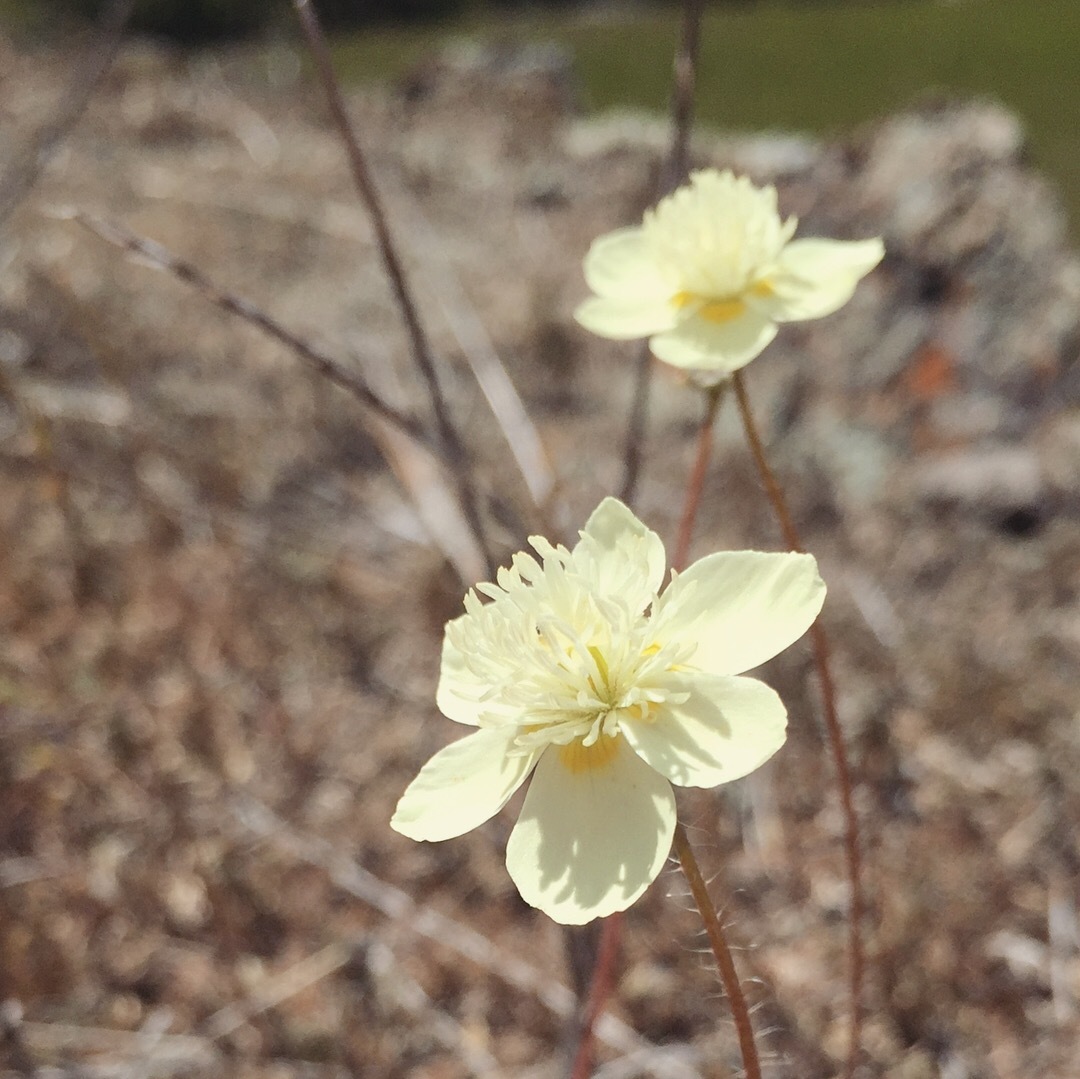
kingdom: Plantae
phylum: Tracheophyta
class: Magnoliopsida
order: Ranunculales
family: Papaveraceae
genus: Platystemon
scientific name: Platystemon californicus
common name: Cream-cups
